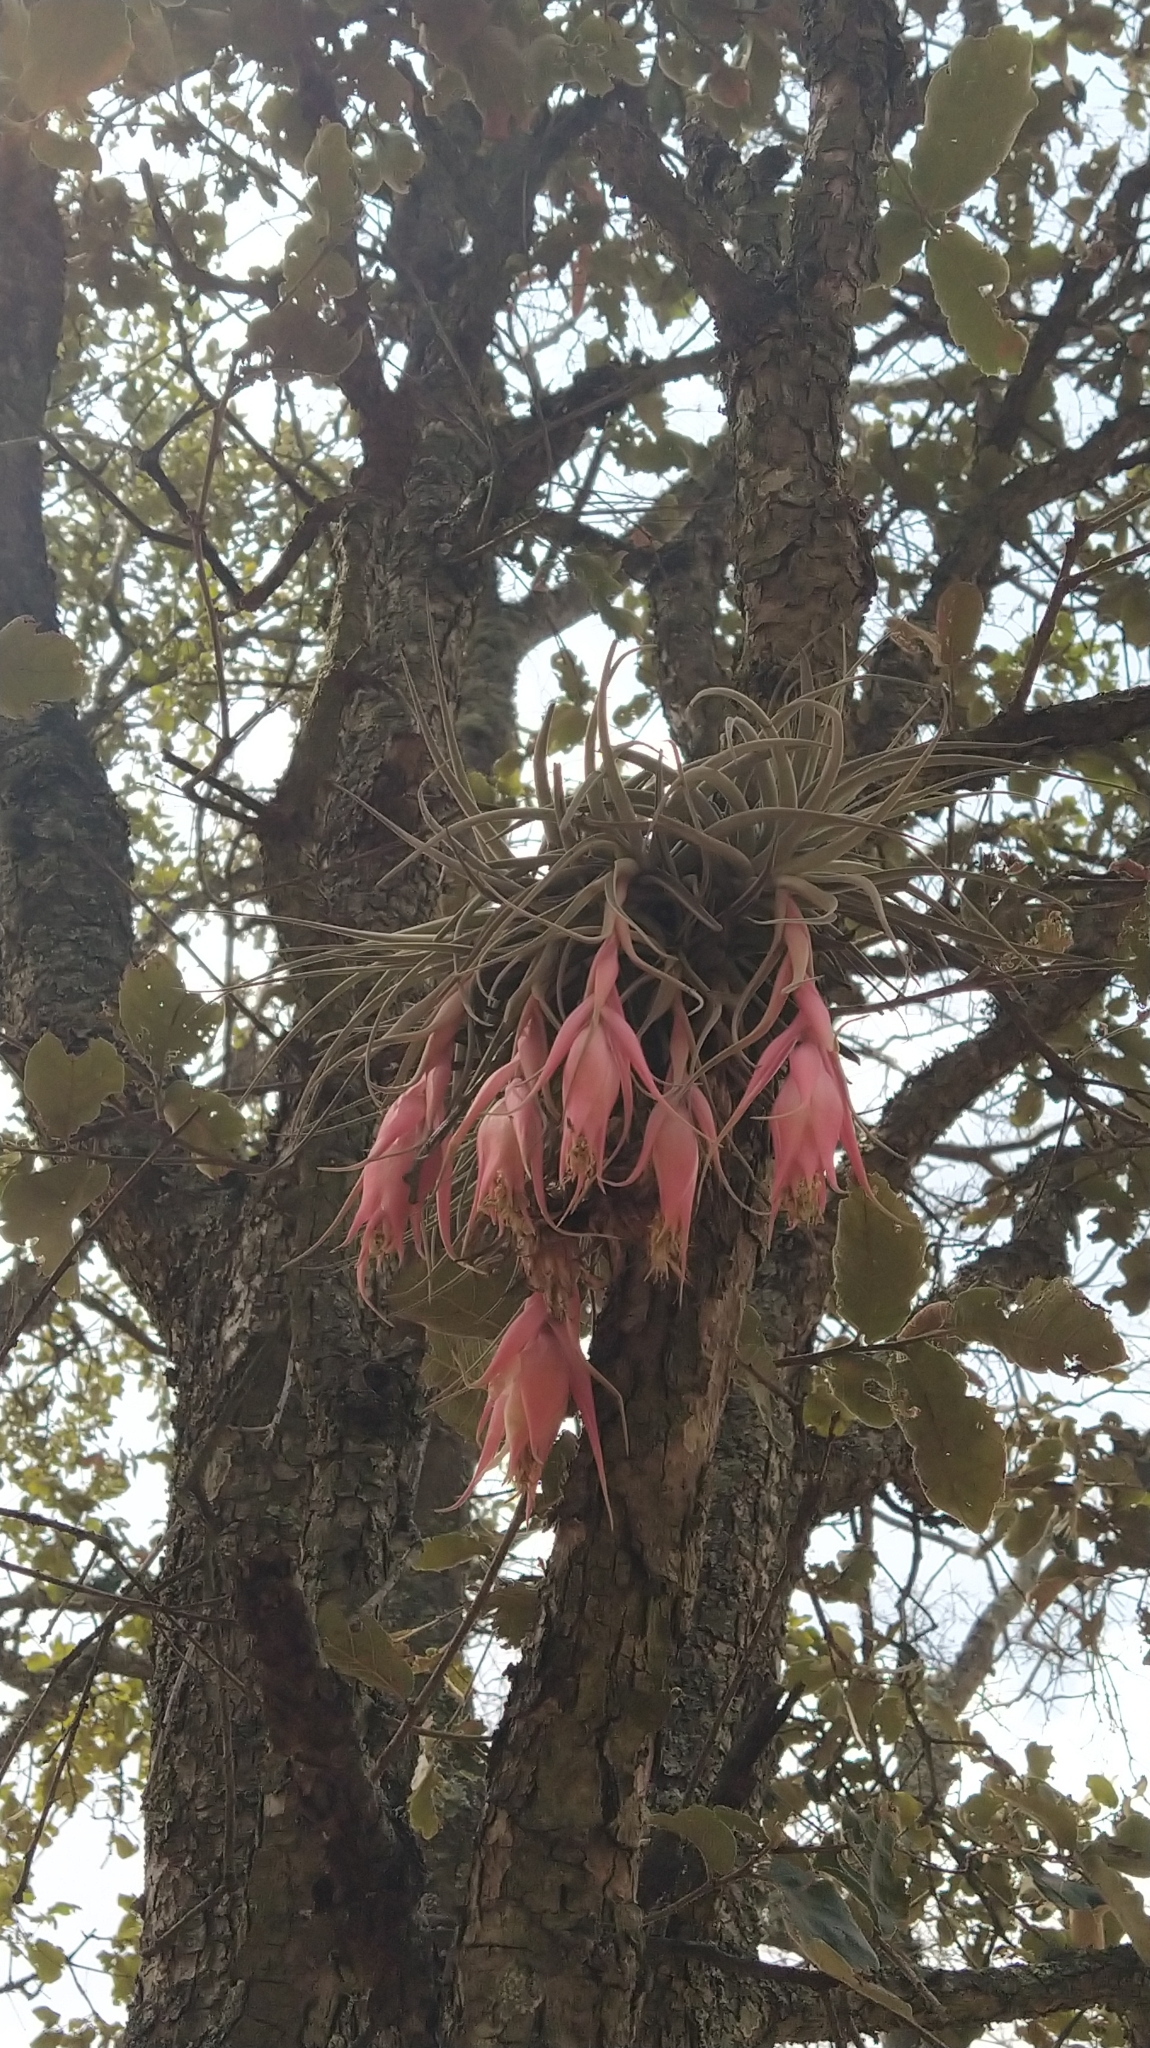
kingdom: Plantae
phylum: Tracheophyta
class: Liliopsida
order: Poales
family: Bromeliaceae
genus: Tillandsia
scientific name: Tillandsia erubescens
